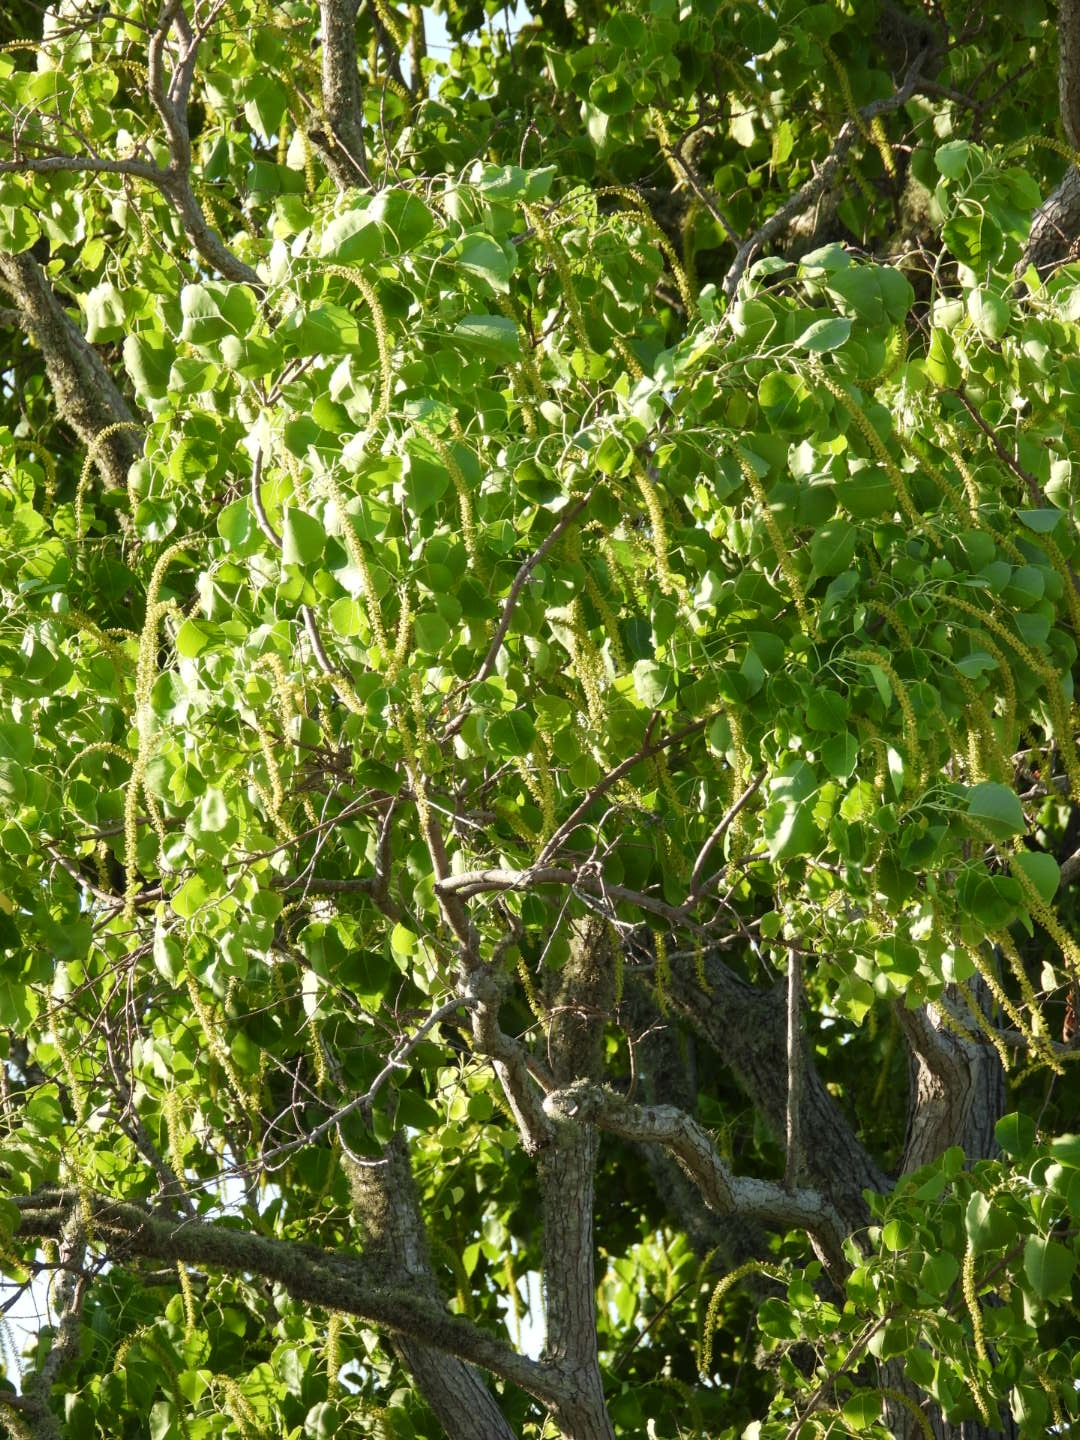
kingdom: Plantae
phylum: Tracheophyta
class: Magnoliopsida
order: Malpighiales
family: Euphorbiaceae
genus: Triadica
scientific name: Triadica sebifera
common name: Chinese tallow
